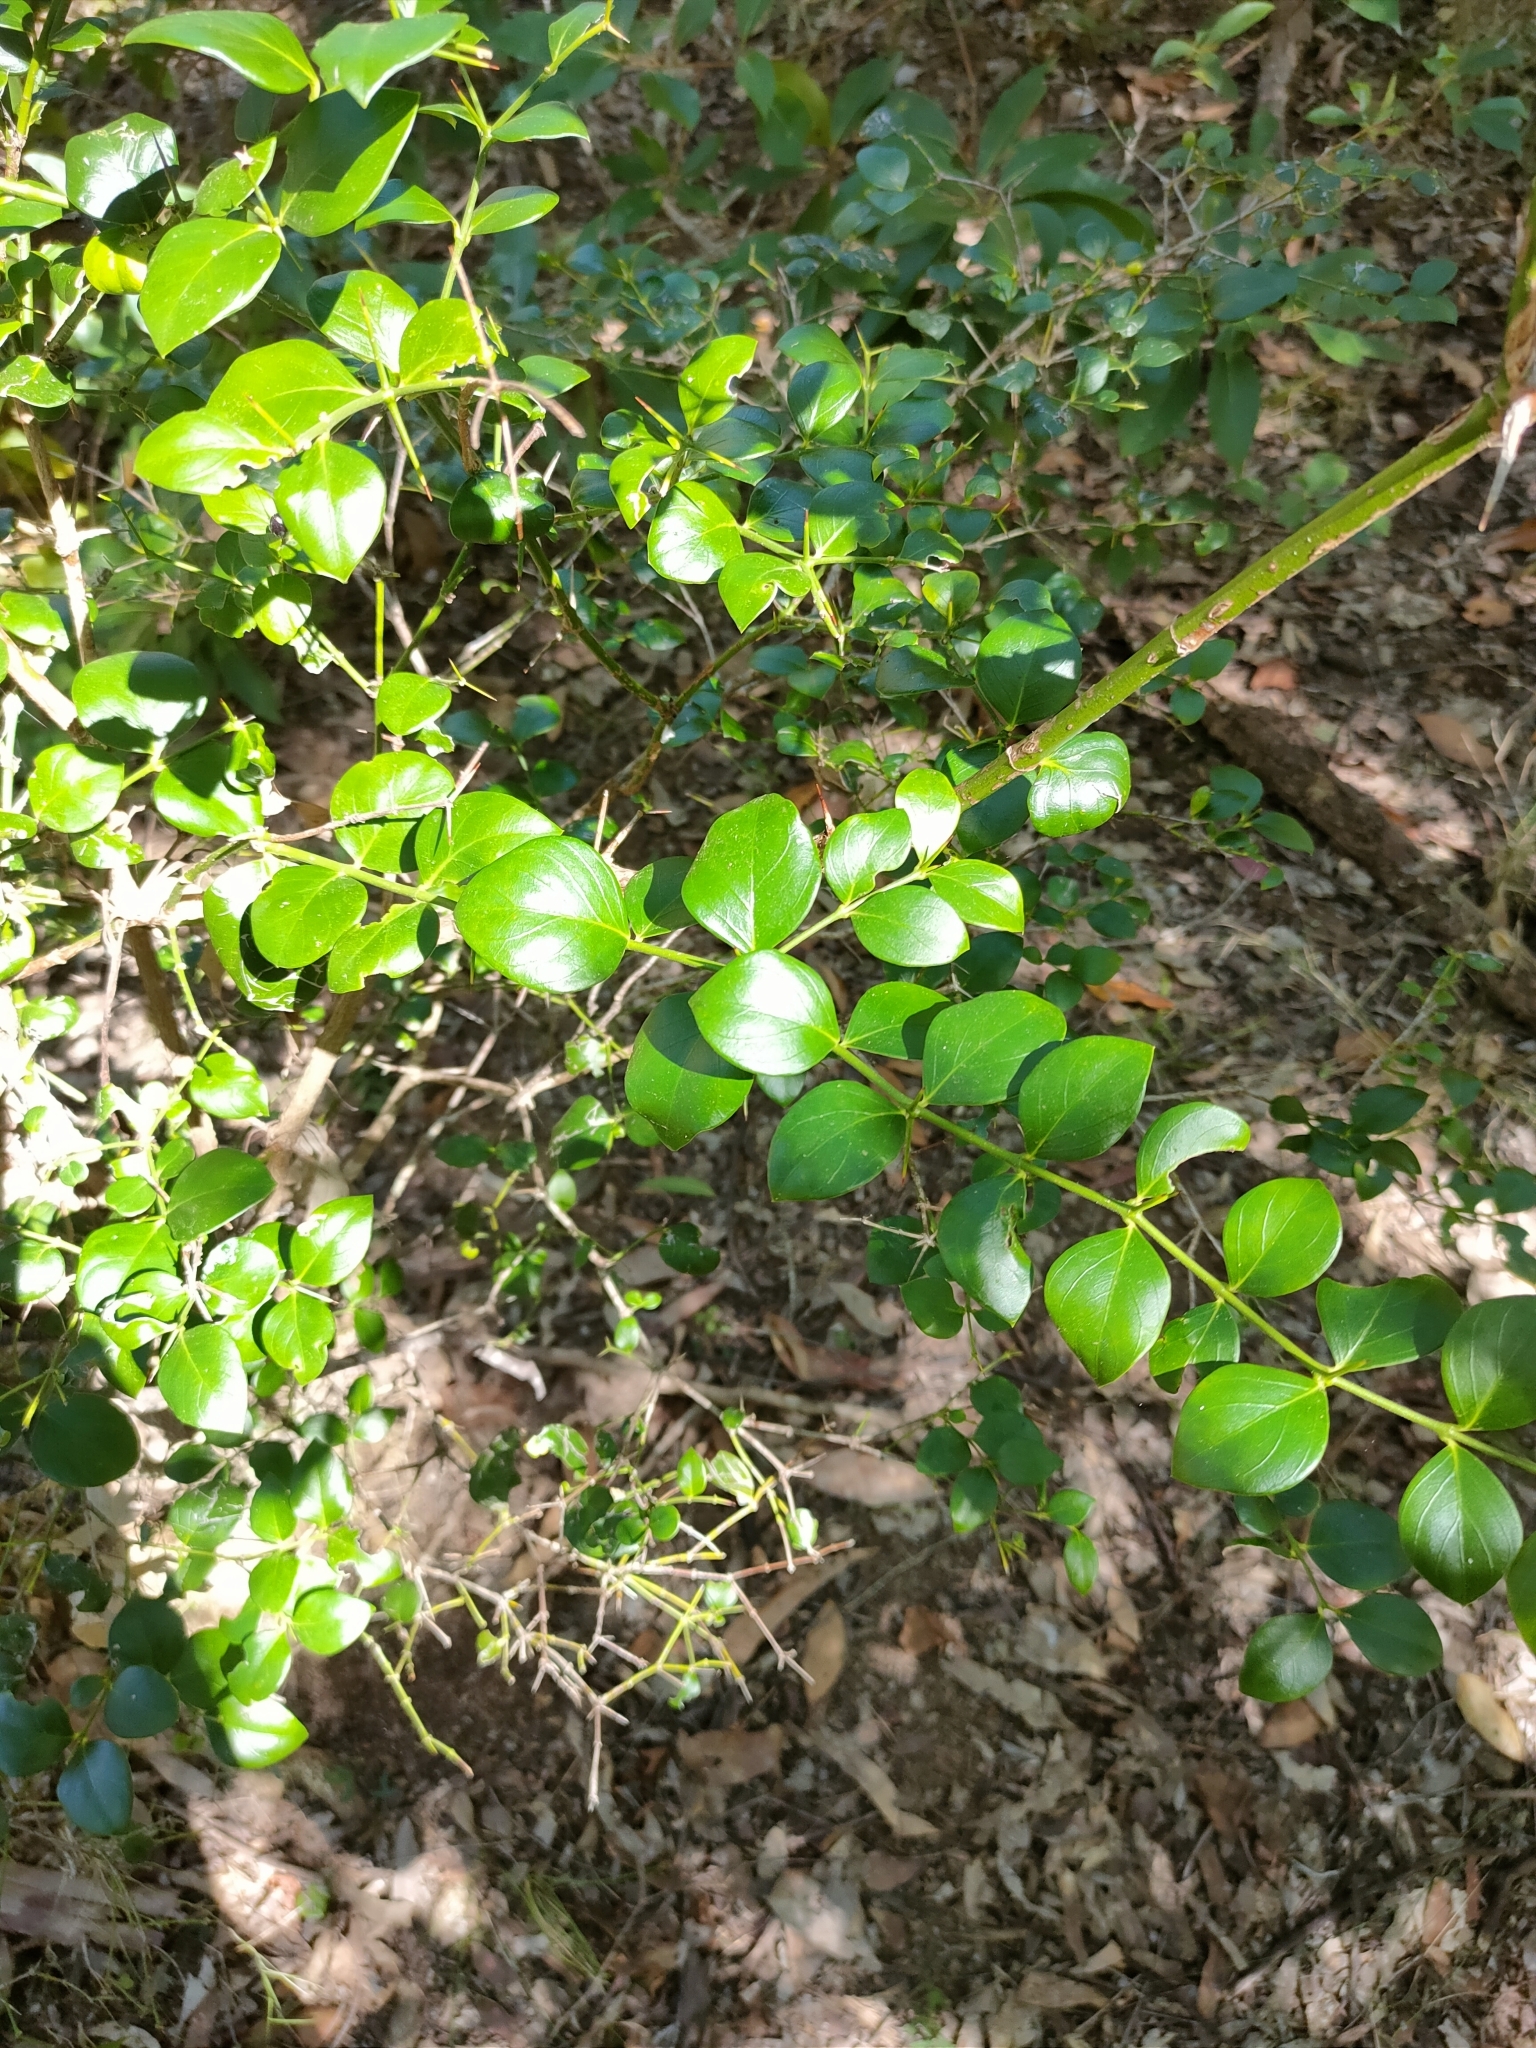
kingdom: Plantae
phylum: Tracheophyta
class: Magnoliopsida
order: Gentianales
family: Apocynaceae
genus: Carissa
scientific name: Carissa ovata
